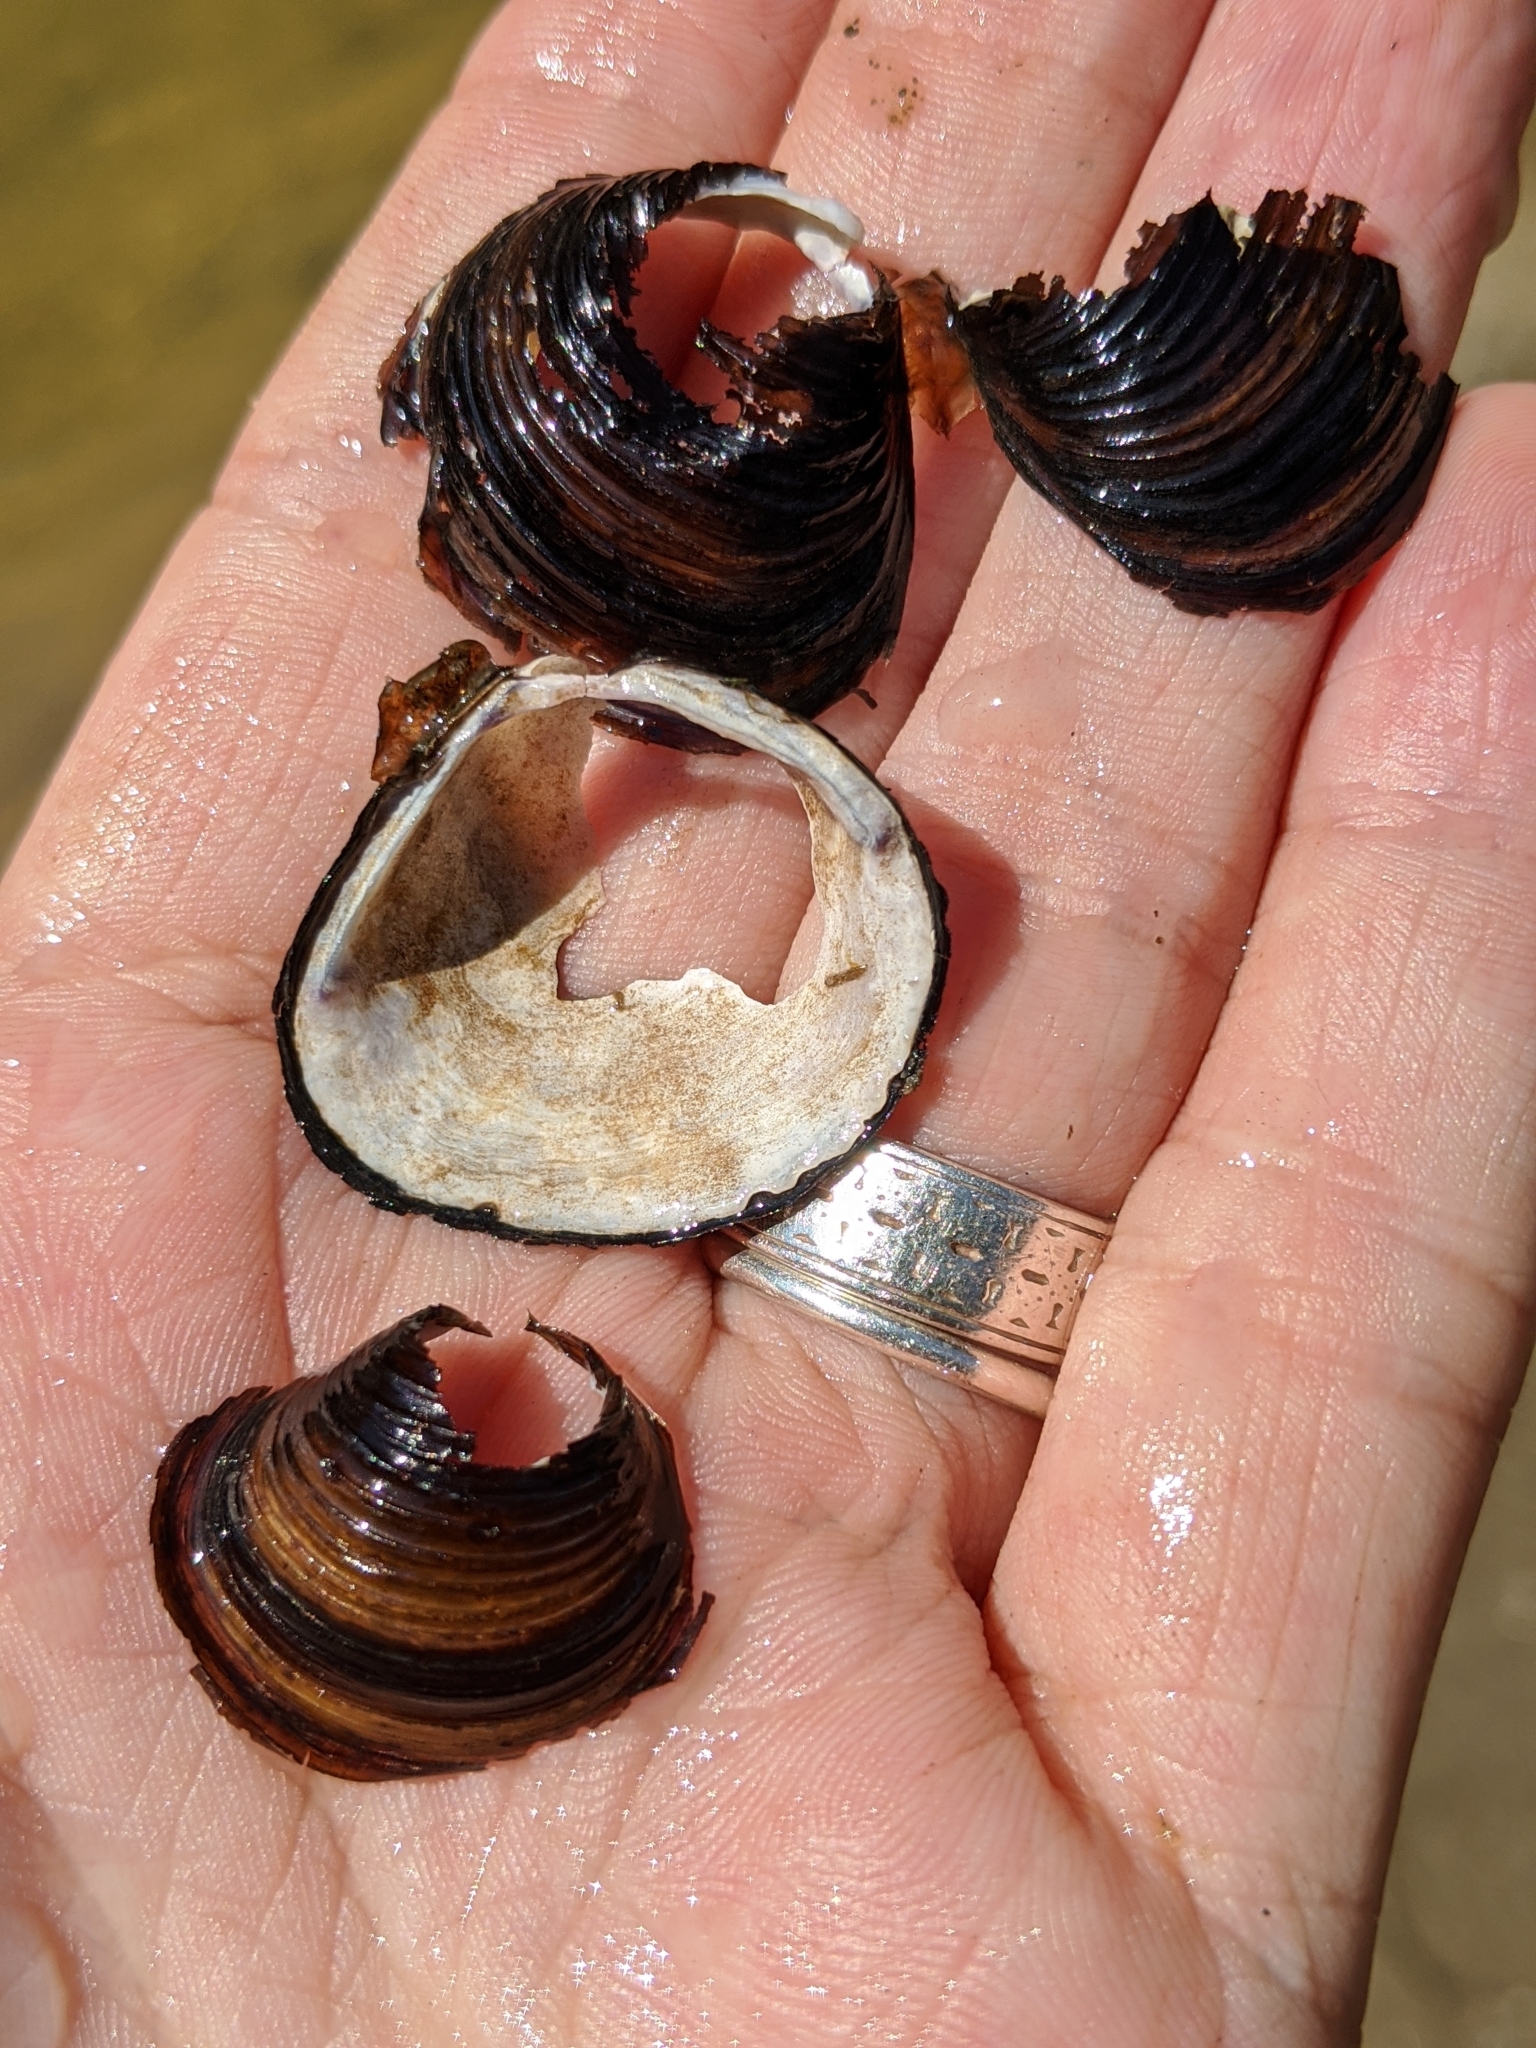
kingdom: Animalia
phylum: Mollusca
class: Bivalvia
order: Venerida
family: Cyrenidae
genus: Corbicula
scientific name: Corbicula fluminea
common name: Asian clam
